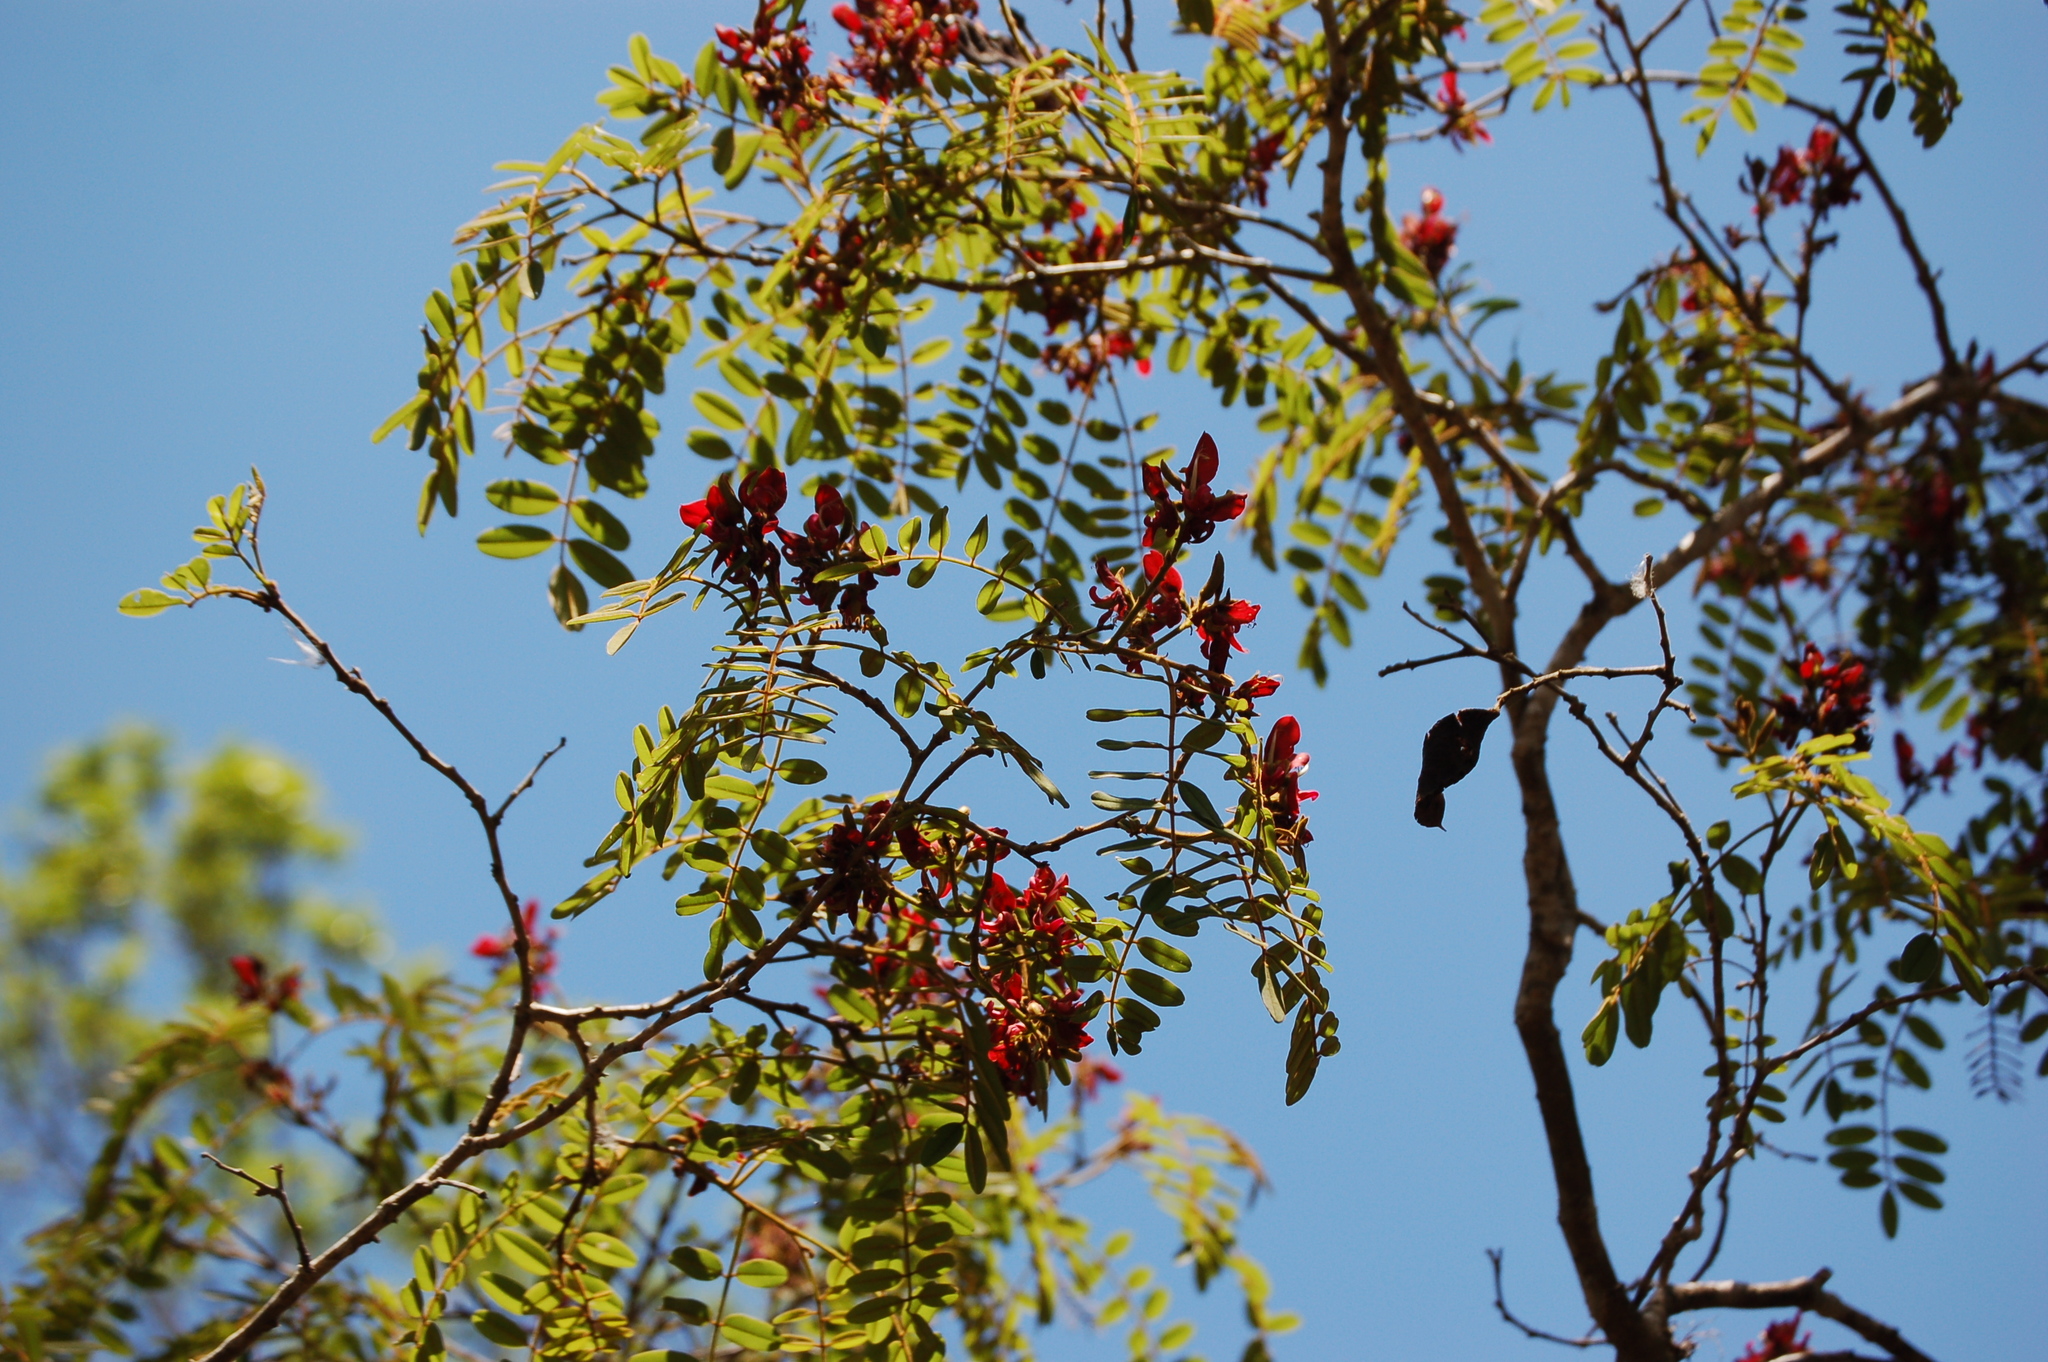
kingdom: Plantae
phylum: Tracheophyta
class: Magnoliopsida
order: Fabales
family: Fabaceae
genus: Harpalyce
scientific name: Harpalyce formosa
